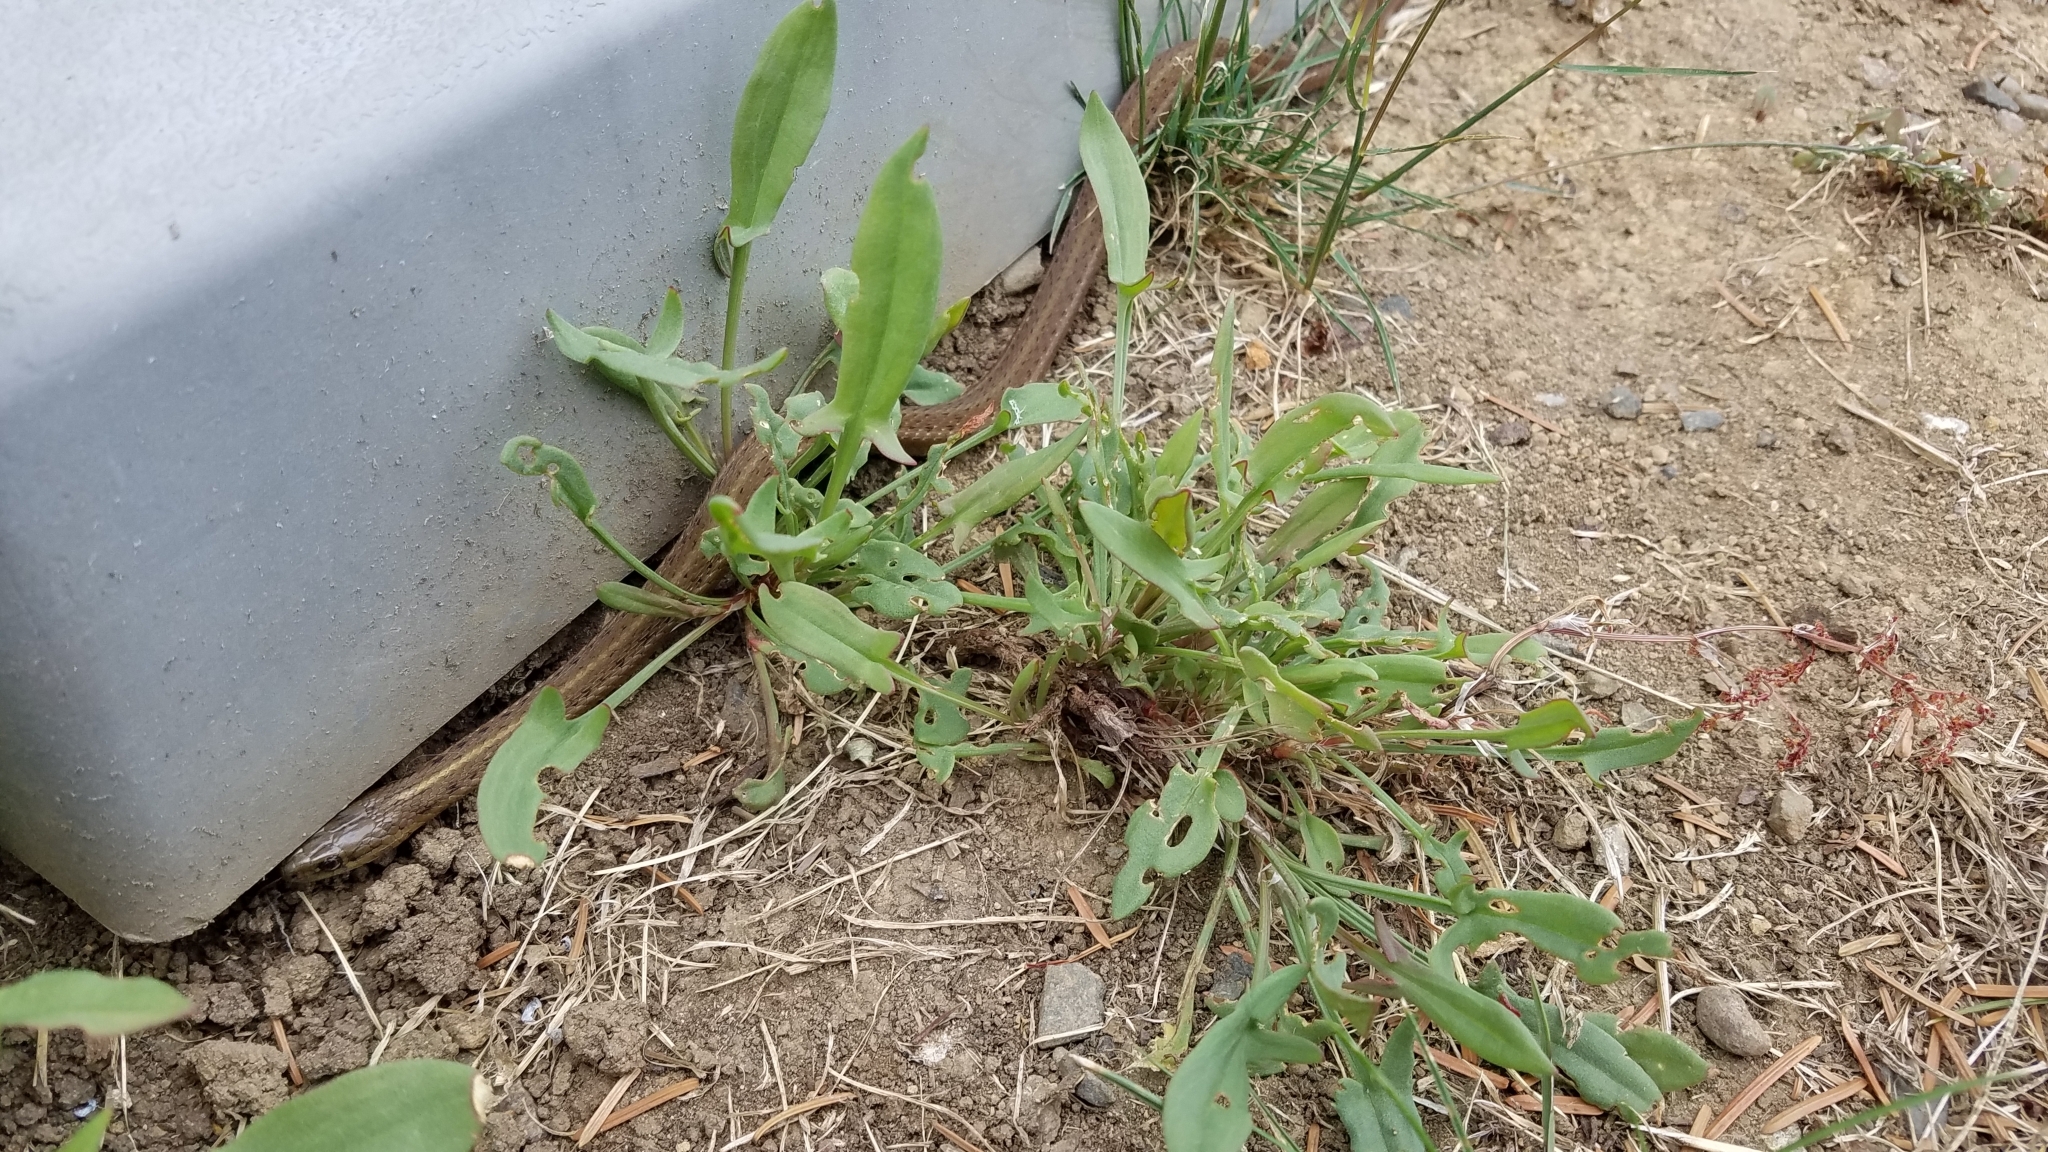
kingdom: Animalia
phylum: Chordata
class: Squamata
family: Colubridae
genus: Thamnophis
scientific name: Thamnophis ordinoides
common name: Northwestern garter snake
